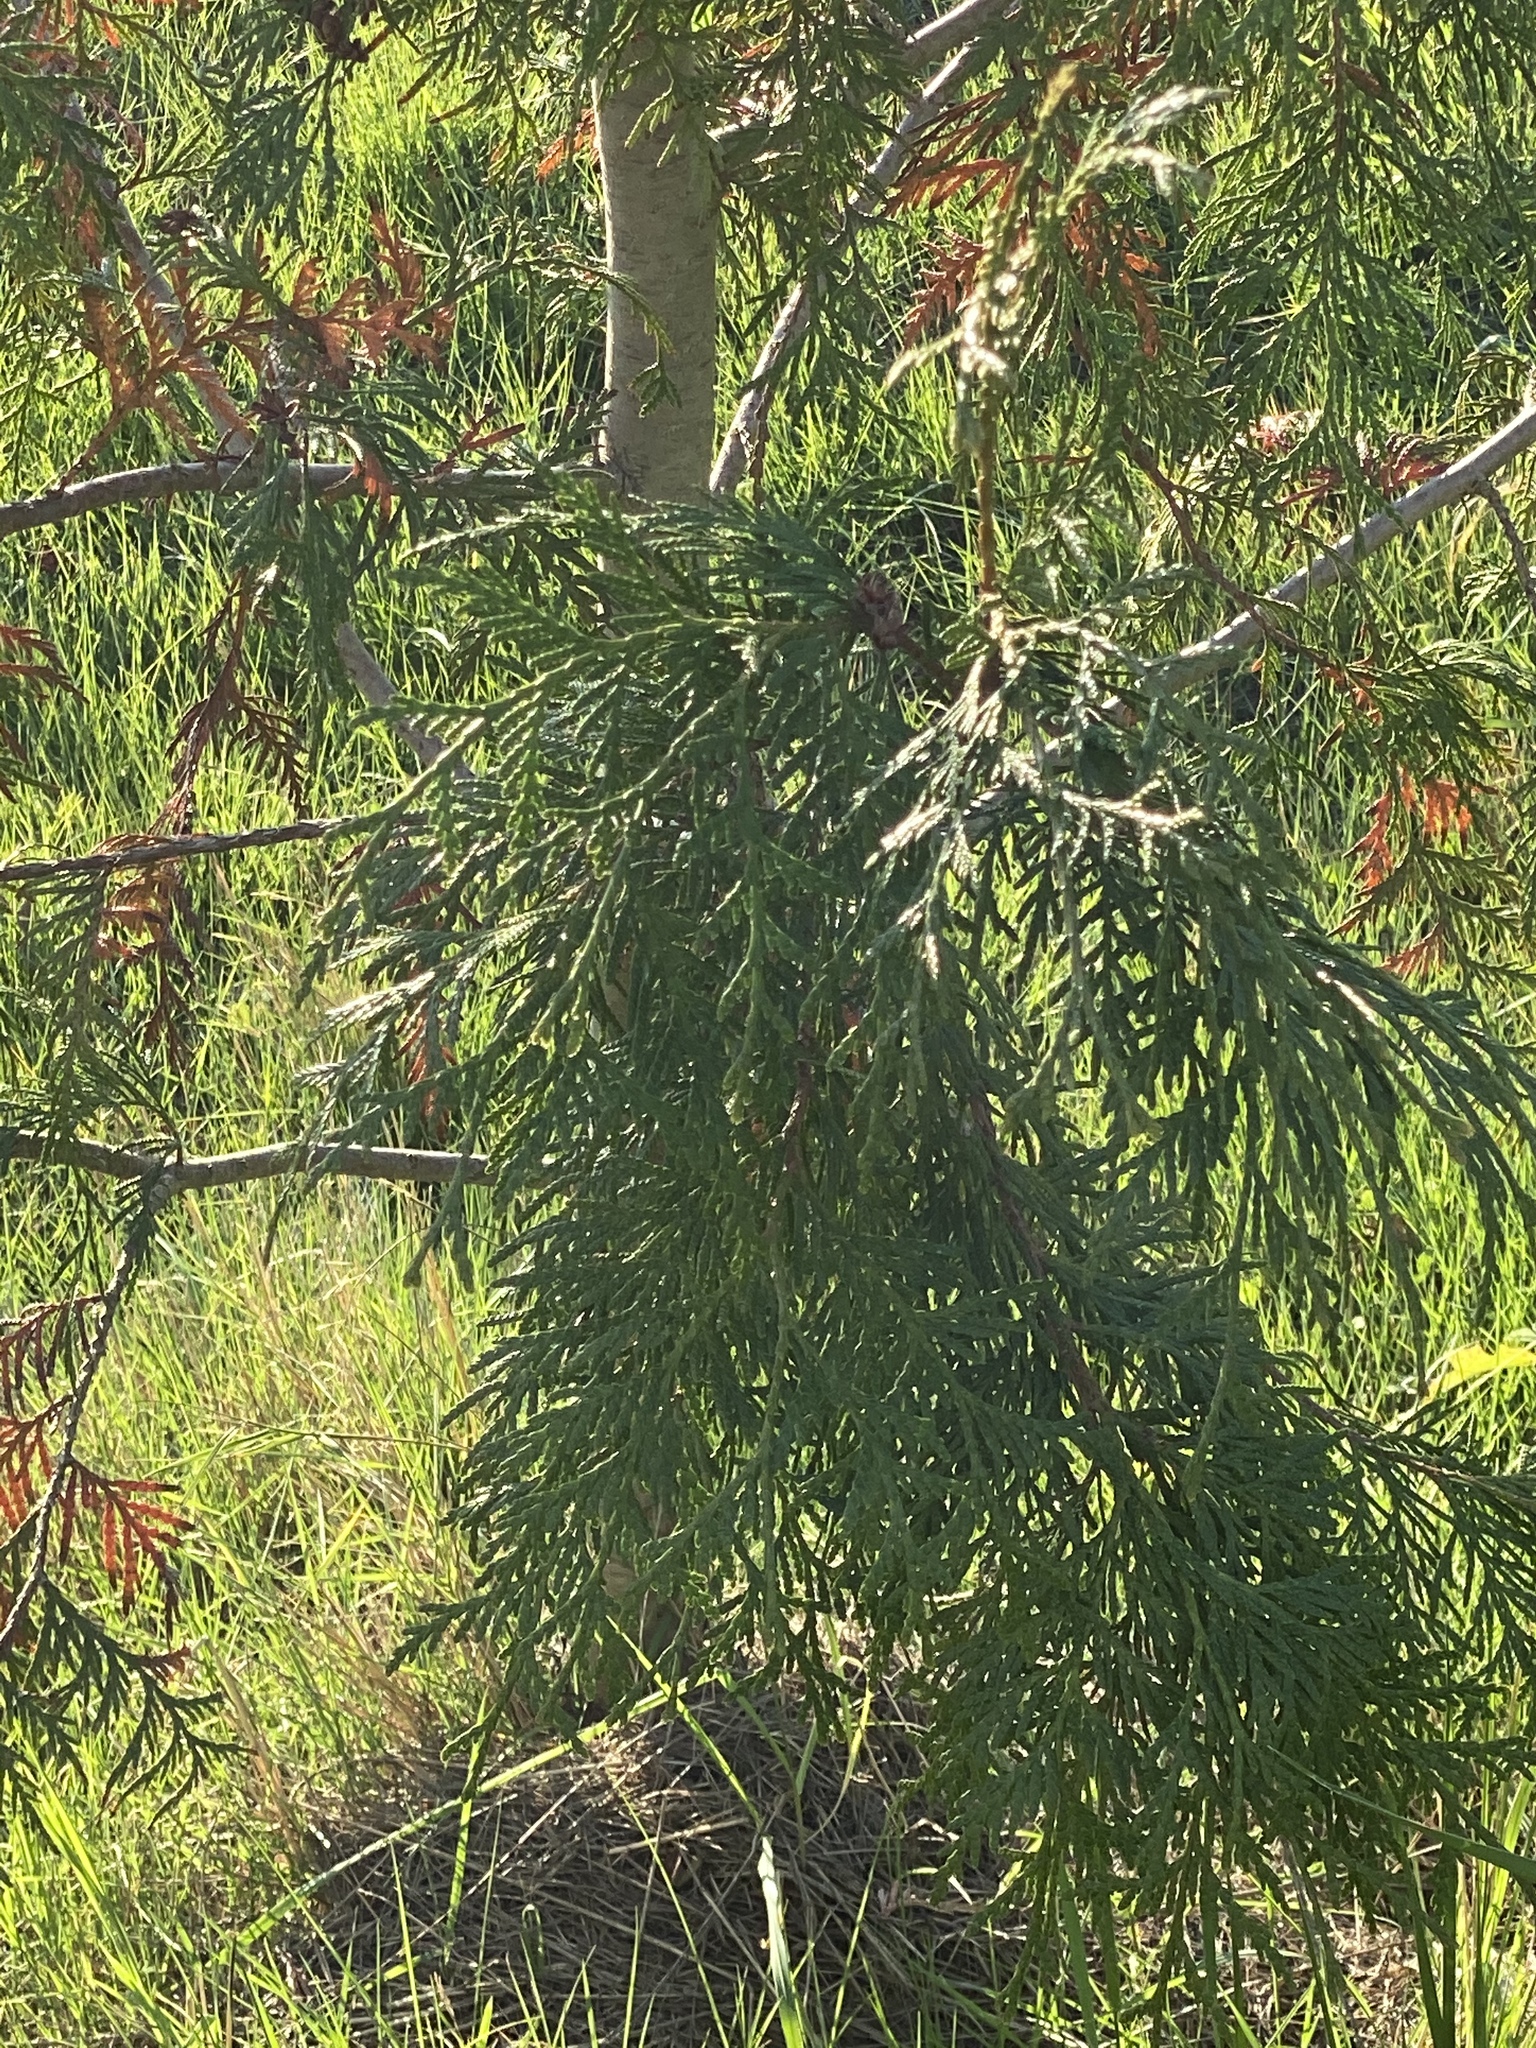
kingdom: Plantae
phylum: Tracheophyta
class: Pinopsida
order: Pinales
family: Cupressaceae
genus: Calocedrus
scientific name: Calocedrus decurrens
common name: Californian incense-cedar
